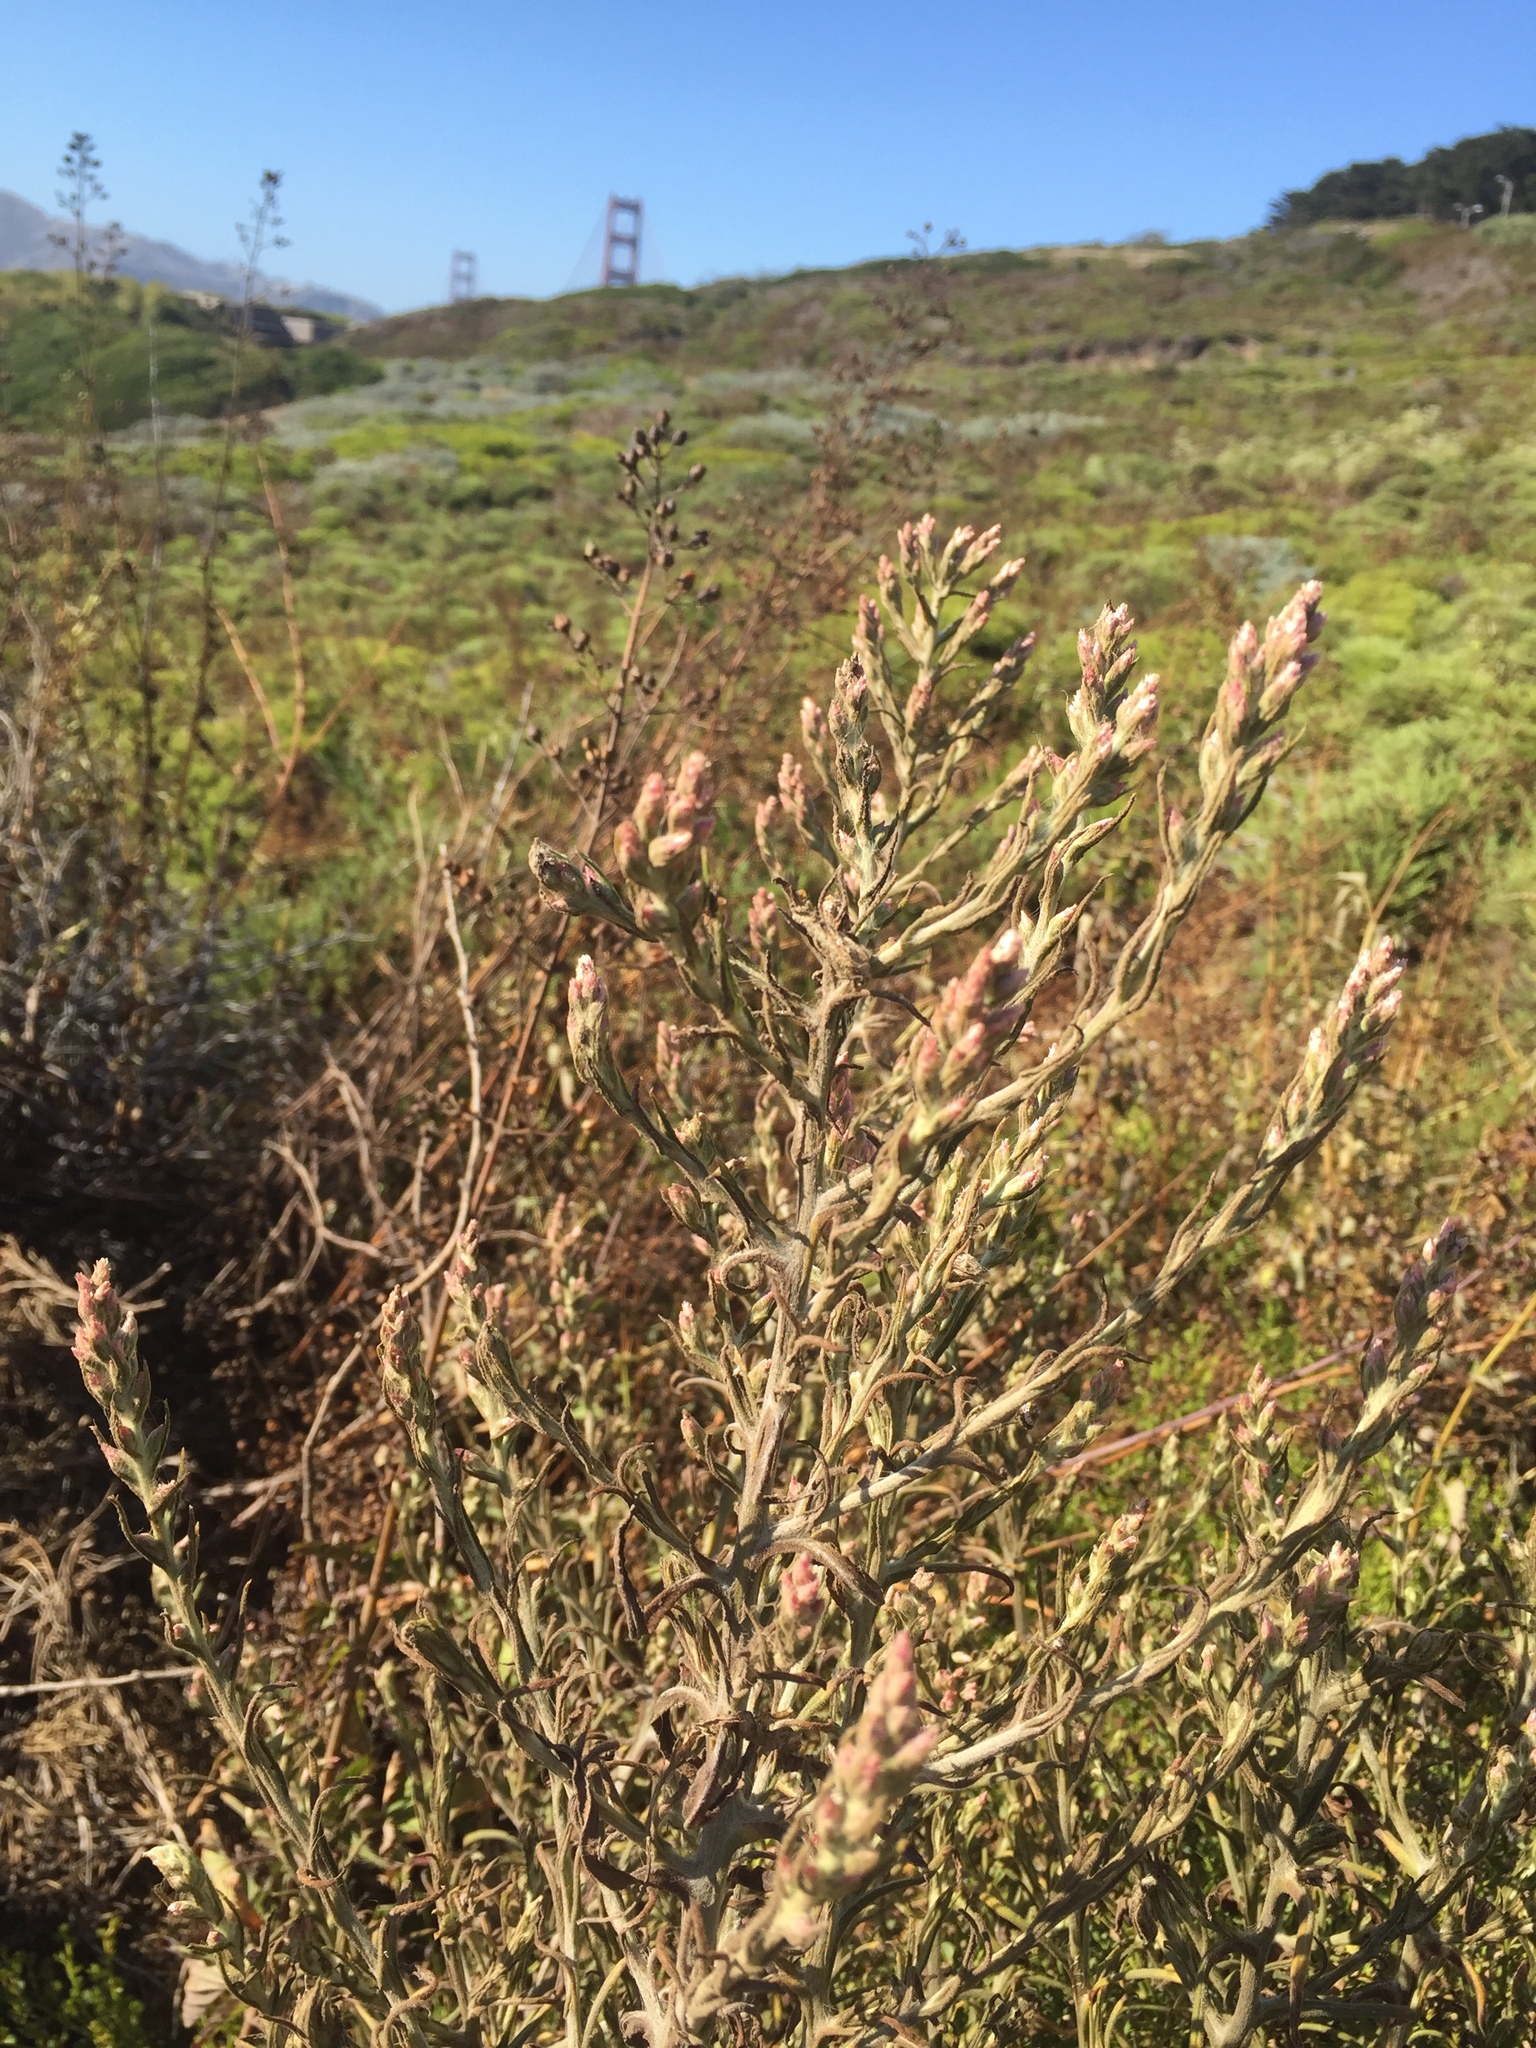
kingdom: Plantae
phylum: Tracheophyta
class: Magnoliopsida
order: Asterales
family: Asteraceae
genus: Pseudognaphalium
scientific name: Pseudognaphalium ramosissimum
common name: Pink rabbit-tobacco
